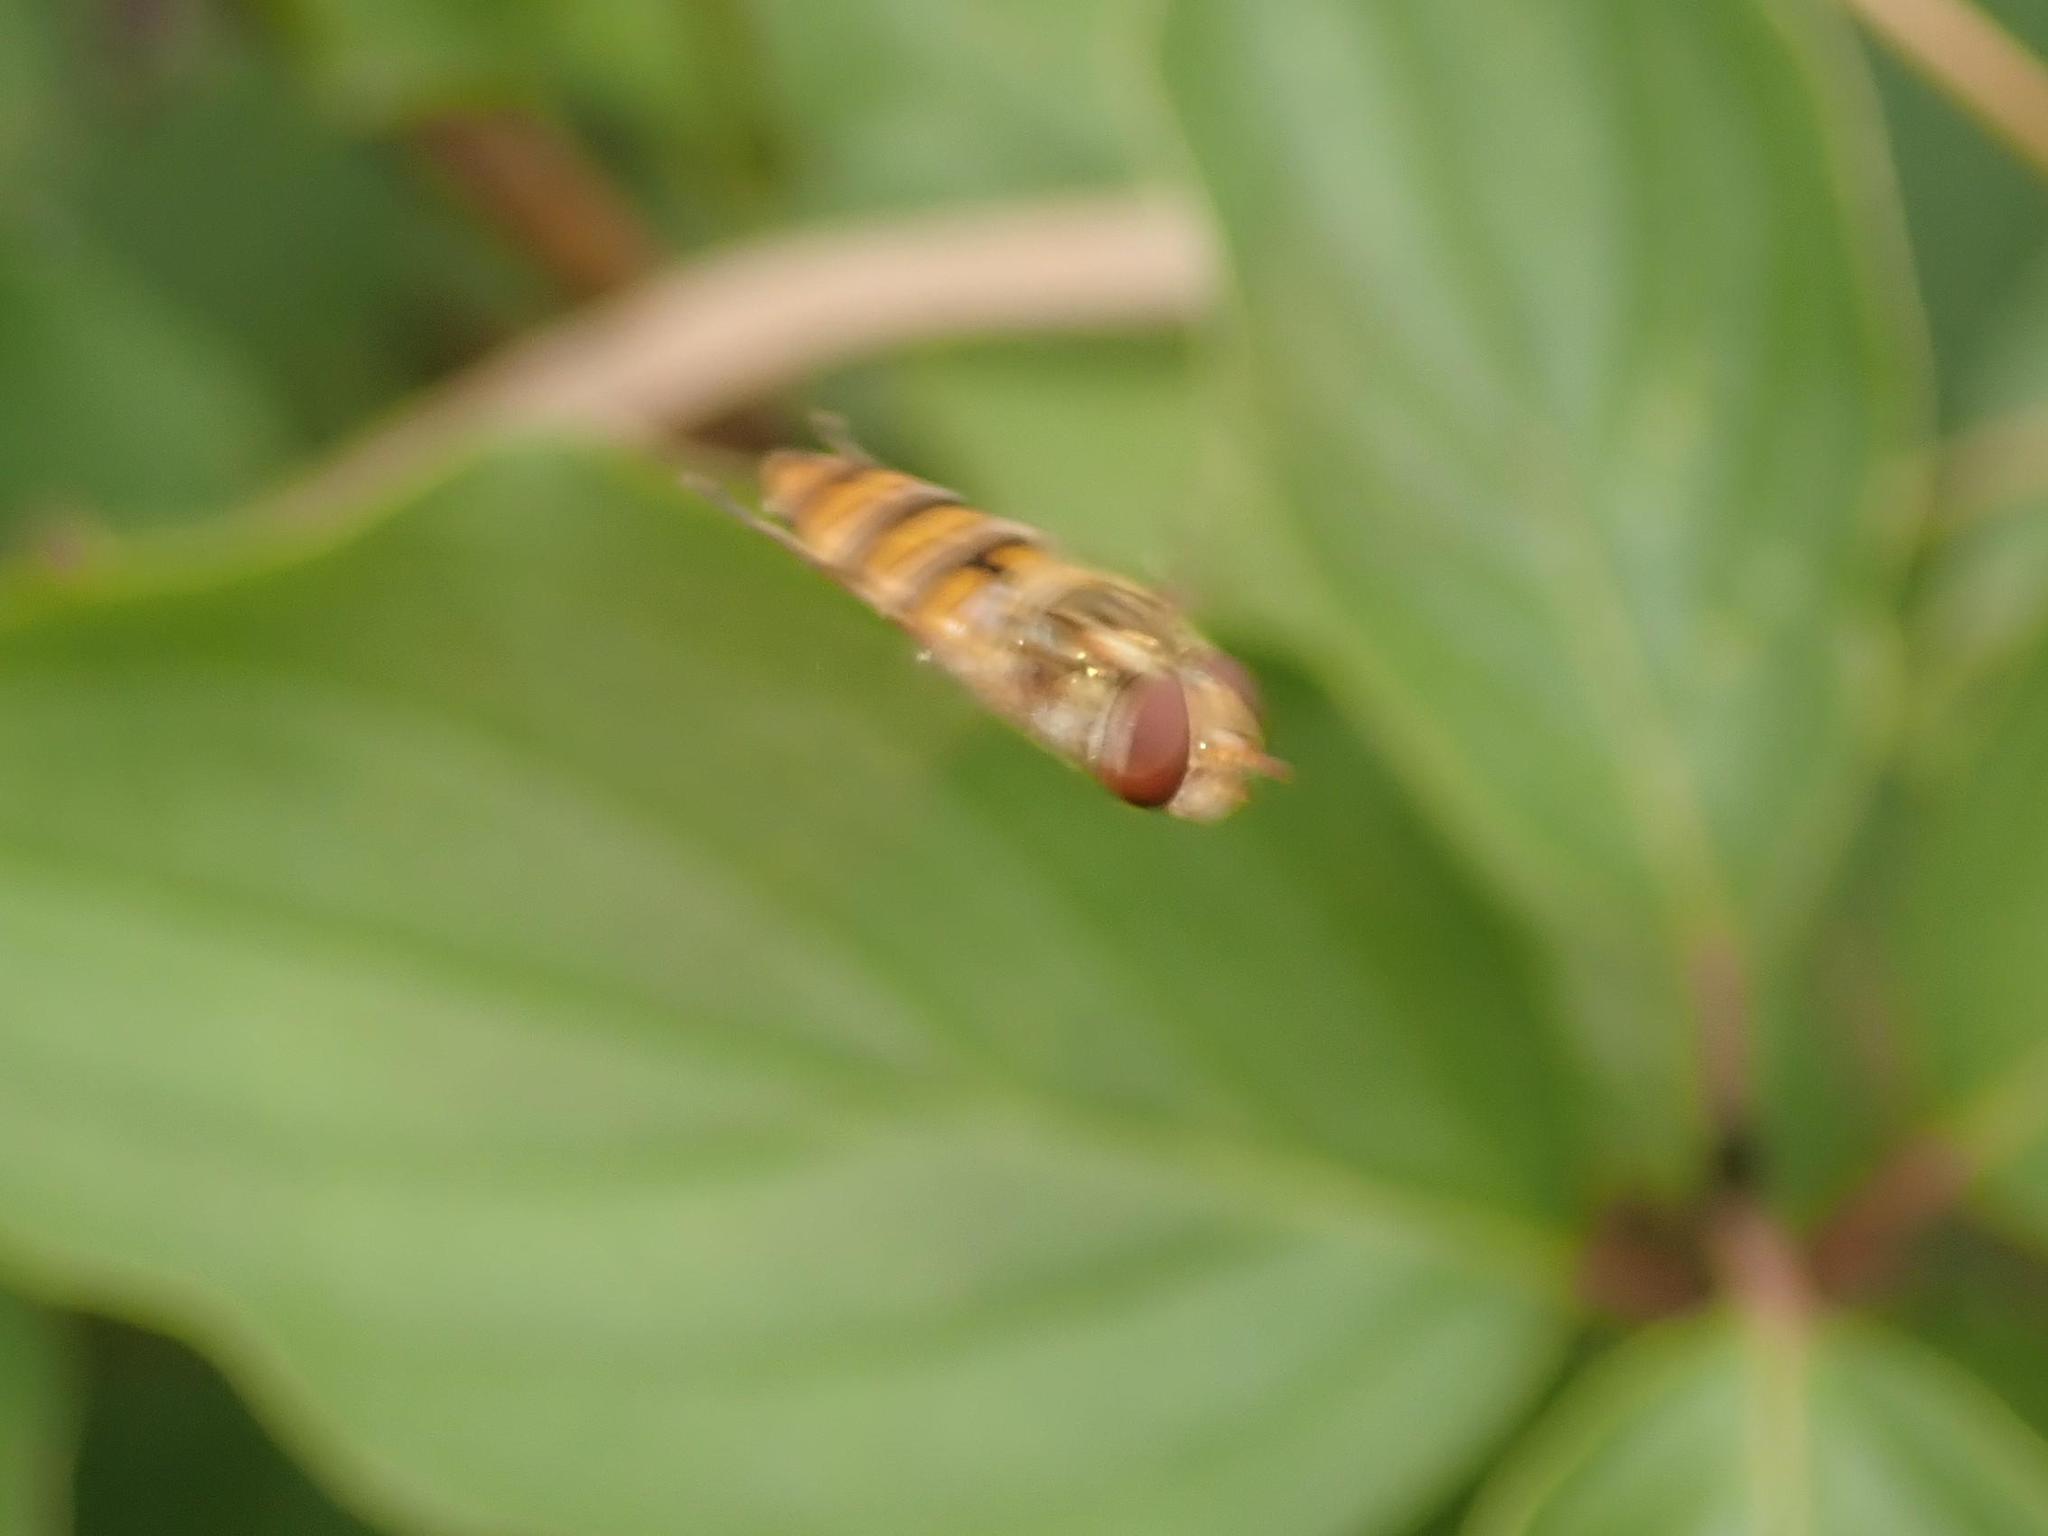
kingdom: Animalia
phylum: Arthropoda
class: Insecta
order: Diptera
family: Syrphidae
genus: Episyrphus
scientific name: Episyrphus balteatus
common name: Marmalade hoverfly
